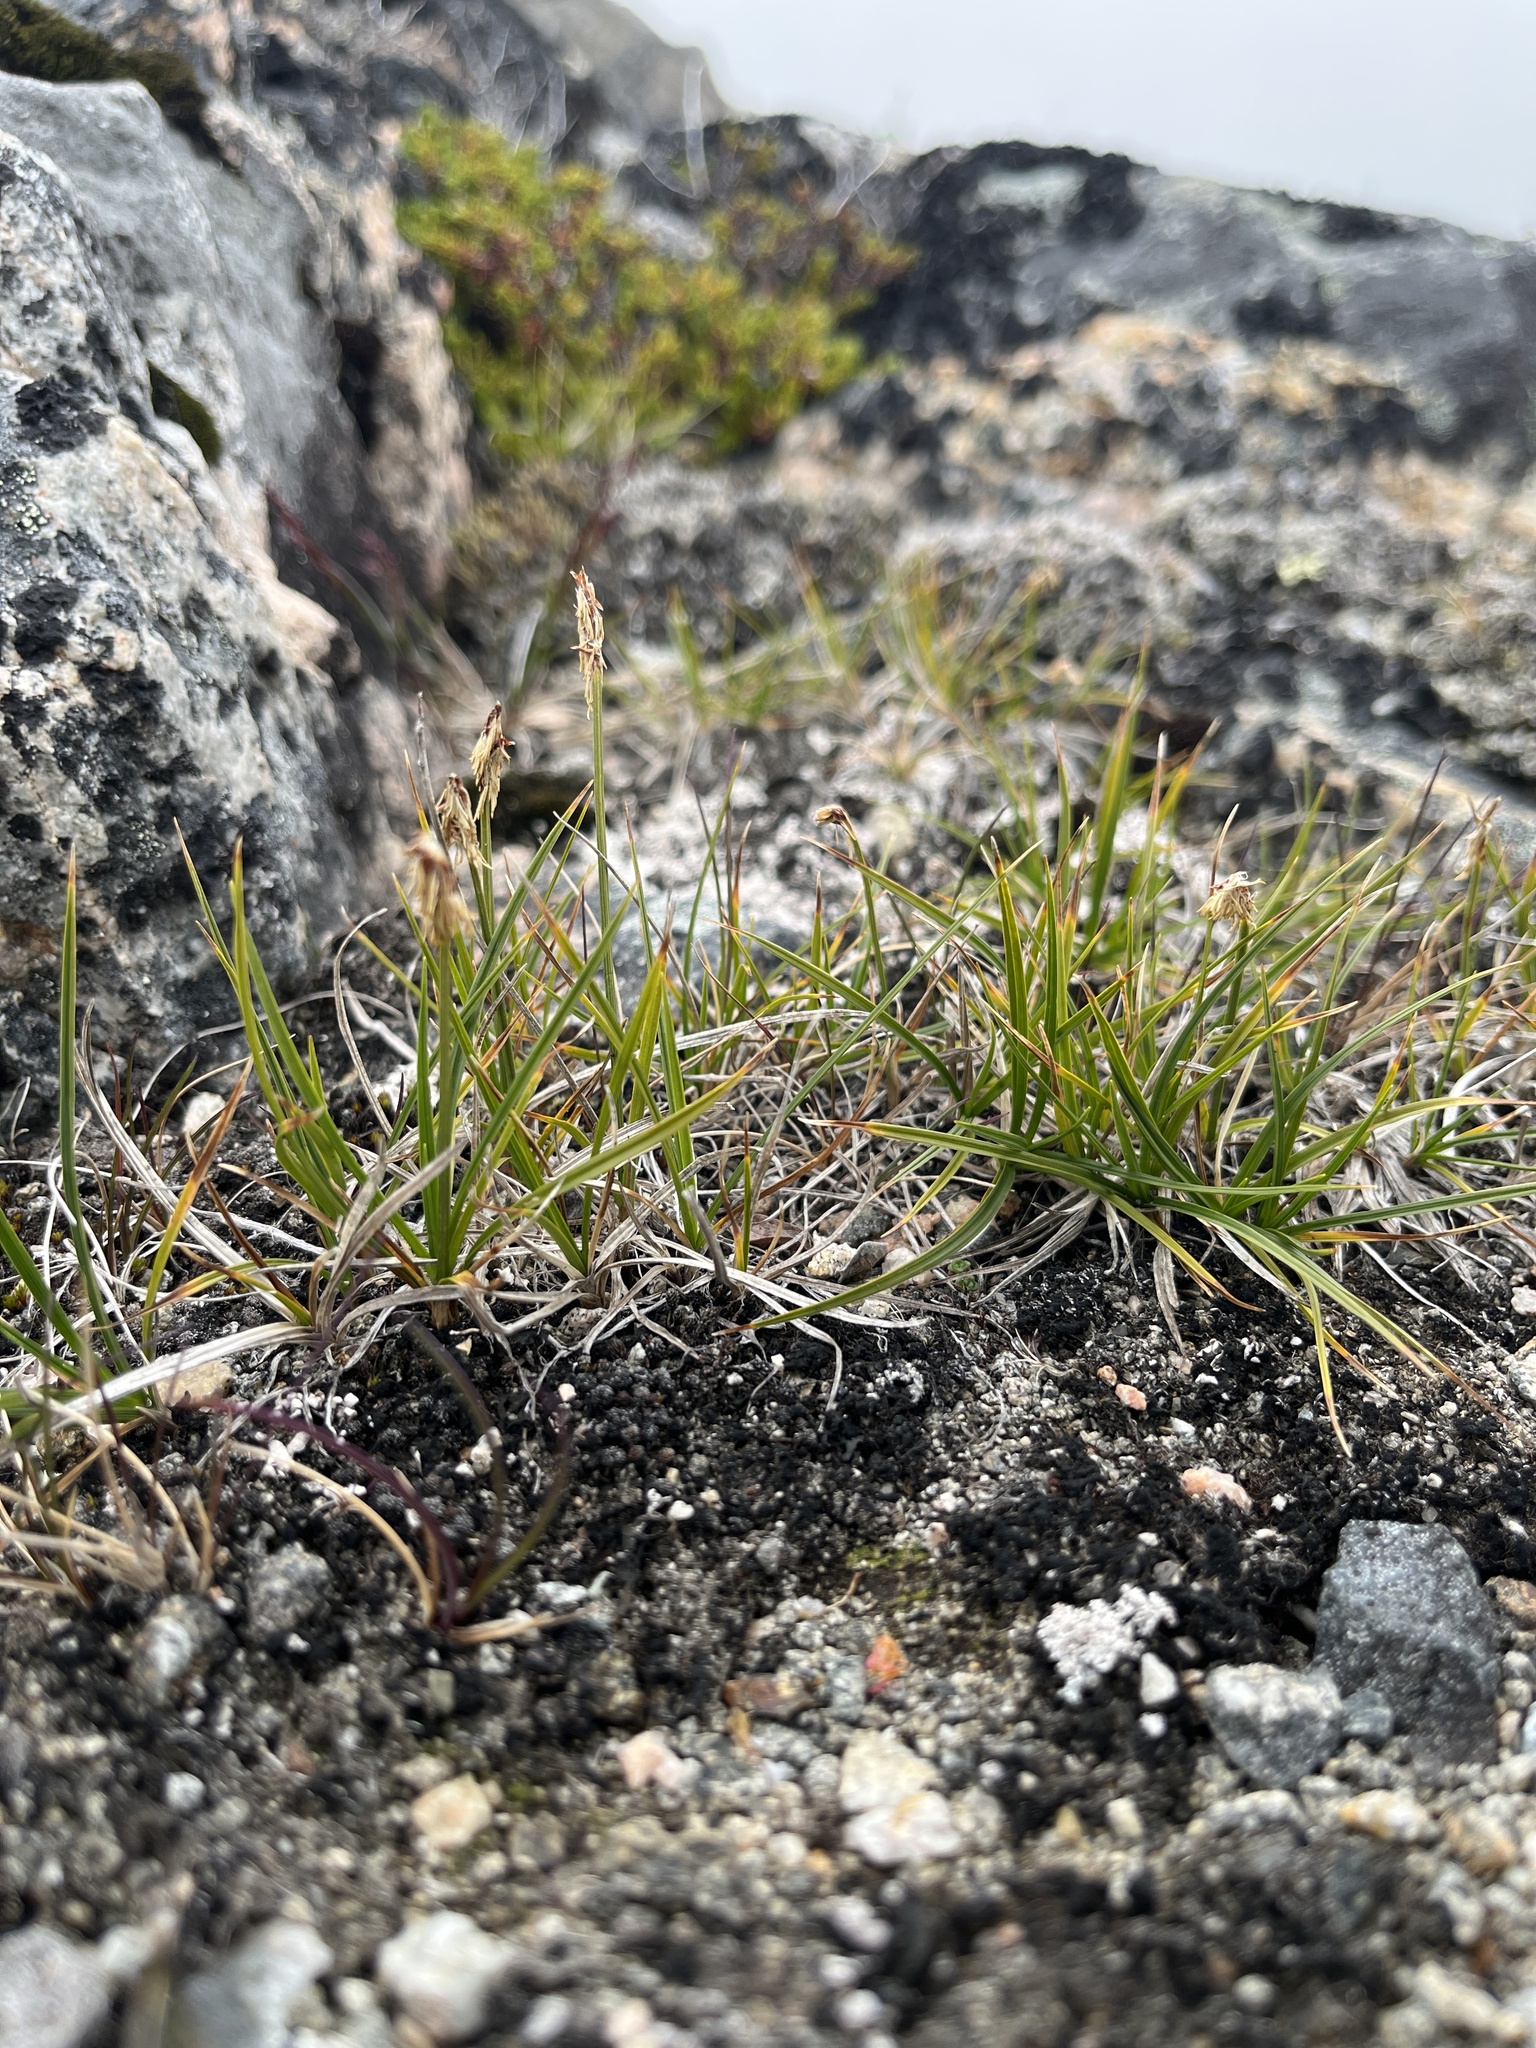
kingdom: Plantae
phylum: Tracheophyta
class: Liliopsida
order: Poales
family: Cyperaceae
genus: Carex
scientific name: Carex scirpoidea
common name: Canada single-spike sedge
